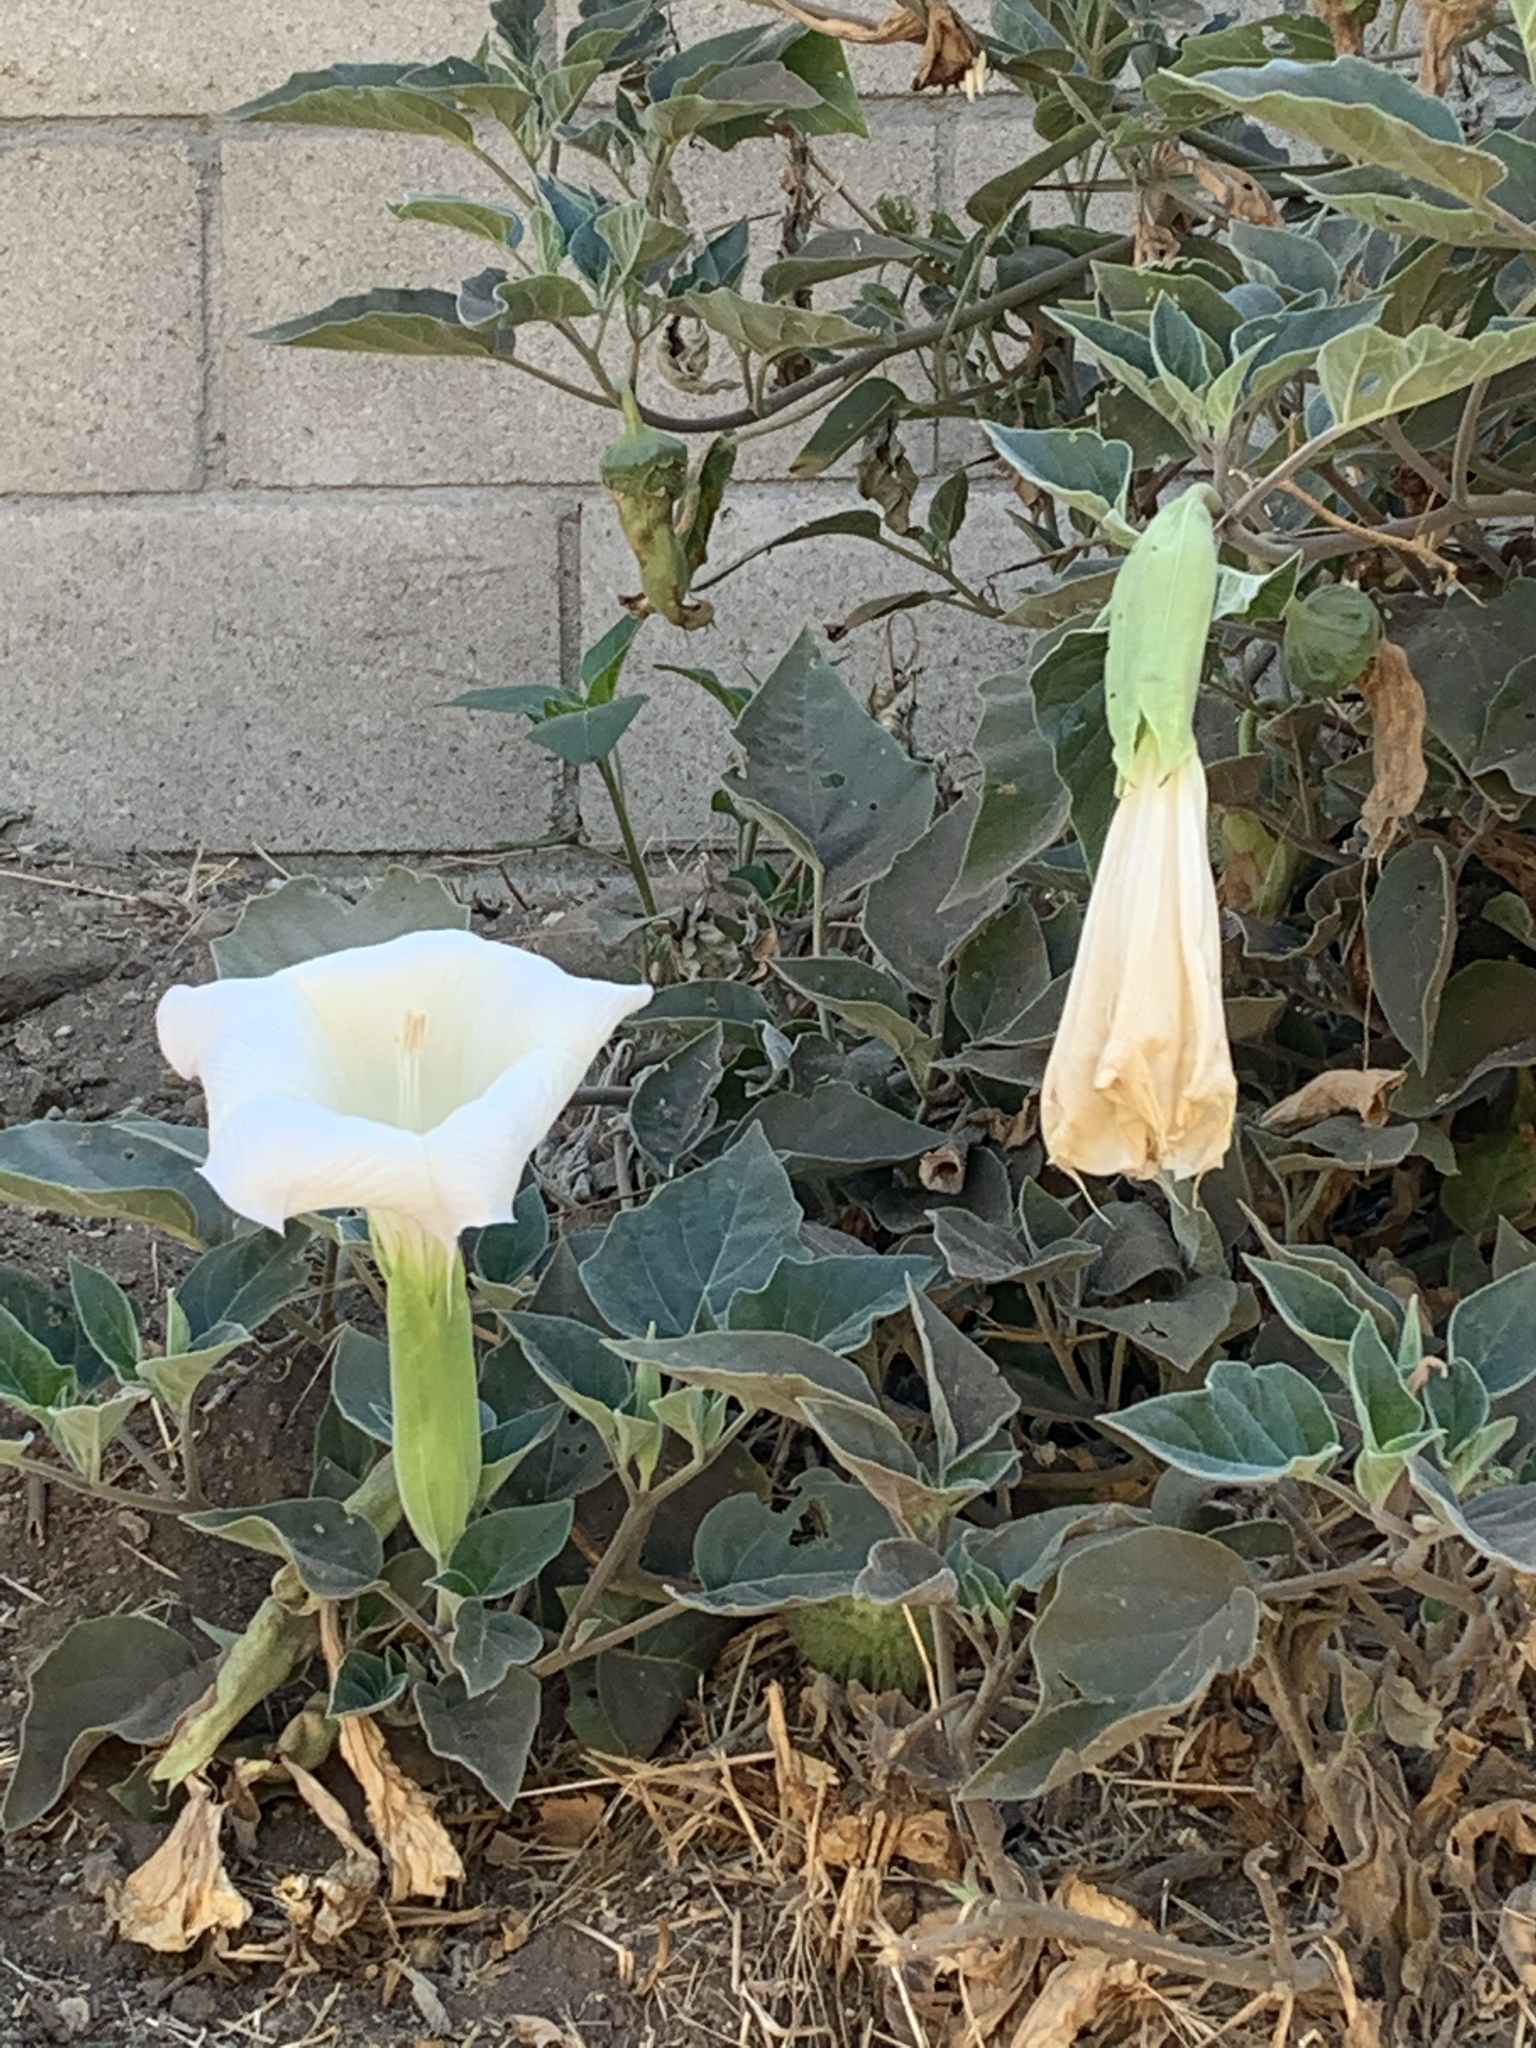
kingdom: Plantae
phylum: Tracheophyta
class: Magnoliopsida
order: Solanales
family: Solanaceae
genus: Datura
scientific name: Datura wrightii
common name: Sacred thorn-apple
